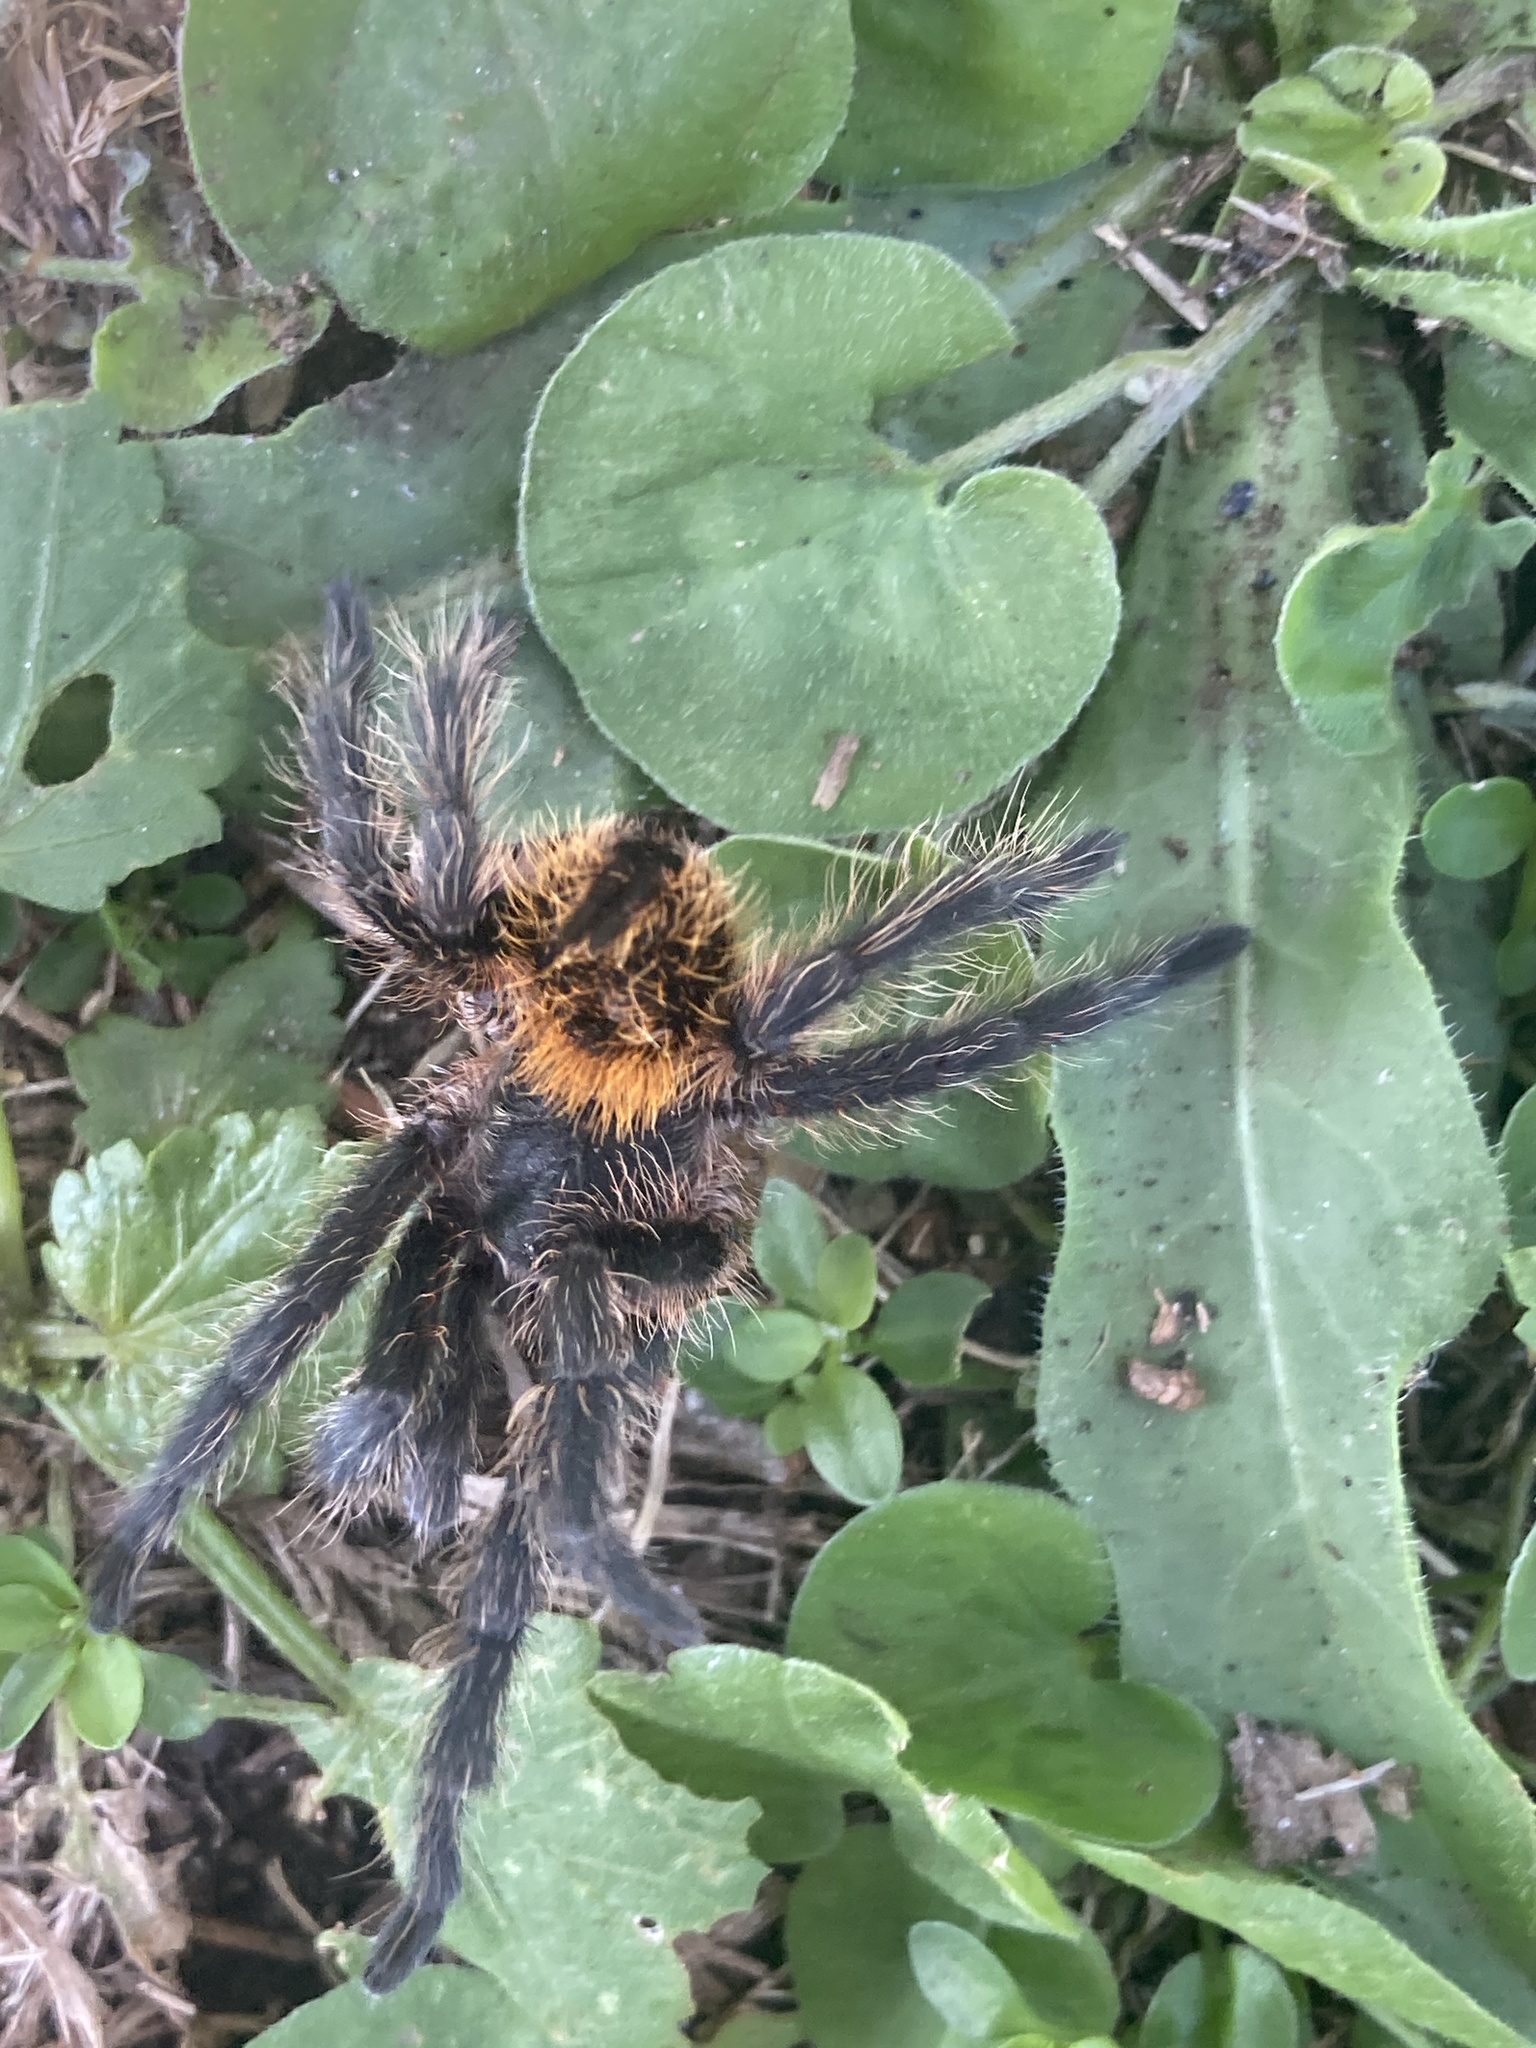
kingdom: Animalia
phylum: Arthropoda
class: Arachnida
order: Araneae
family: Theraphosidae
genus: Plesiopelma
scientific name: Plesiopelma longisternale
